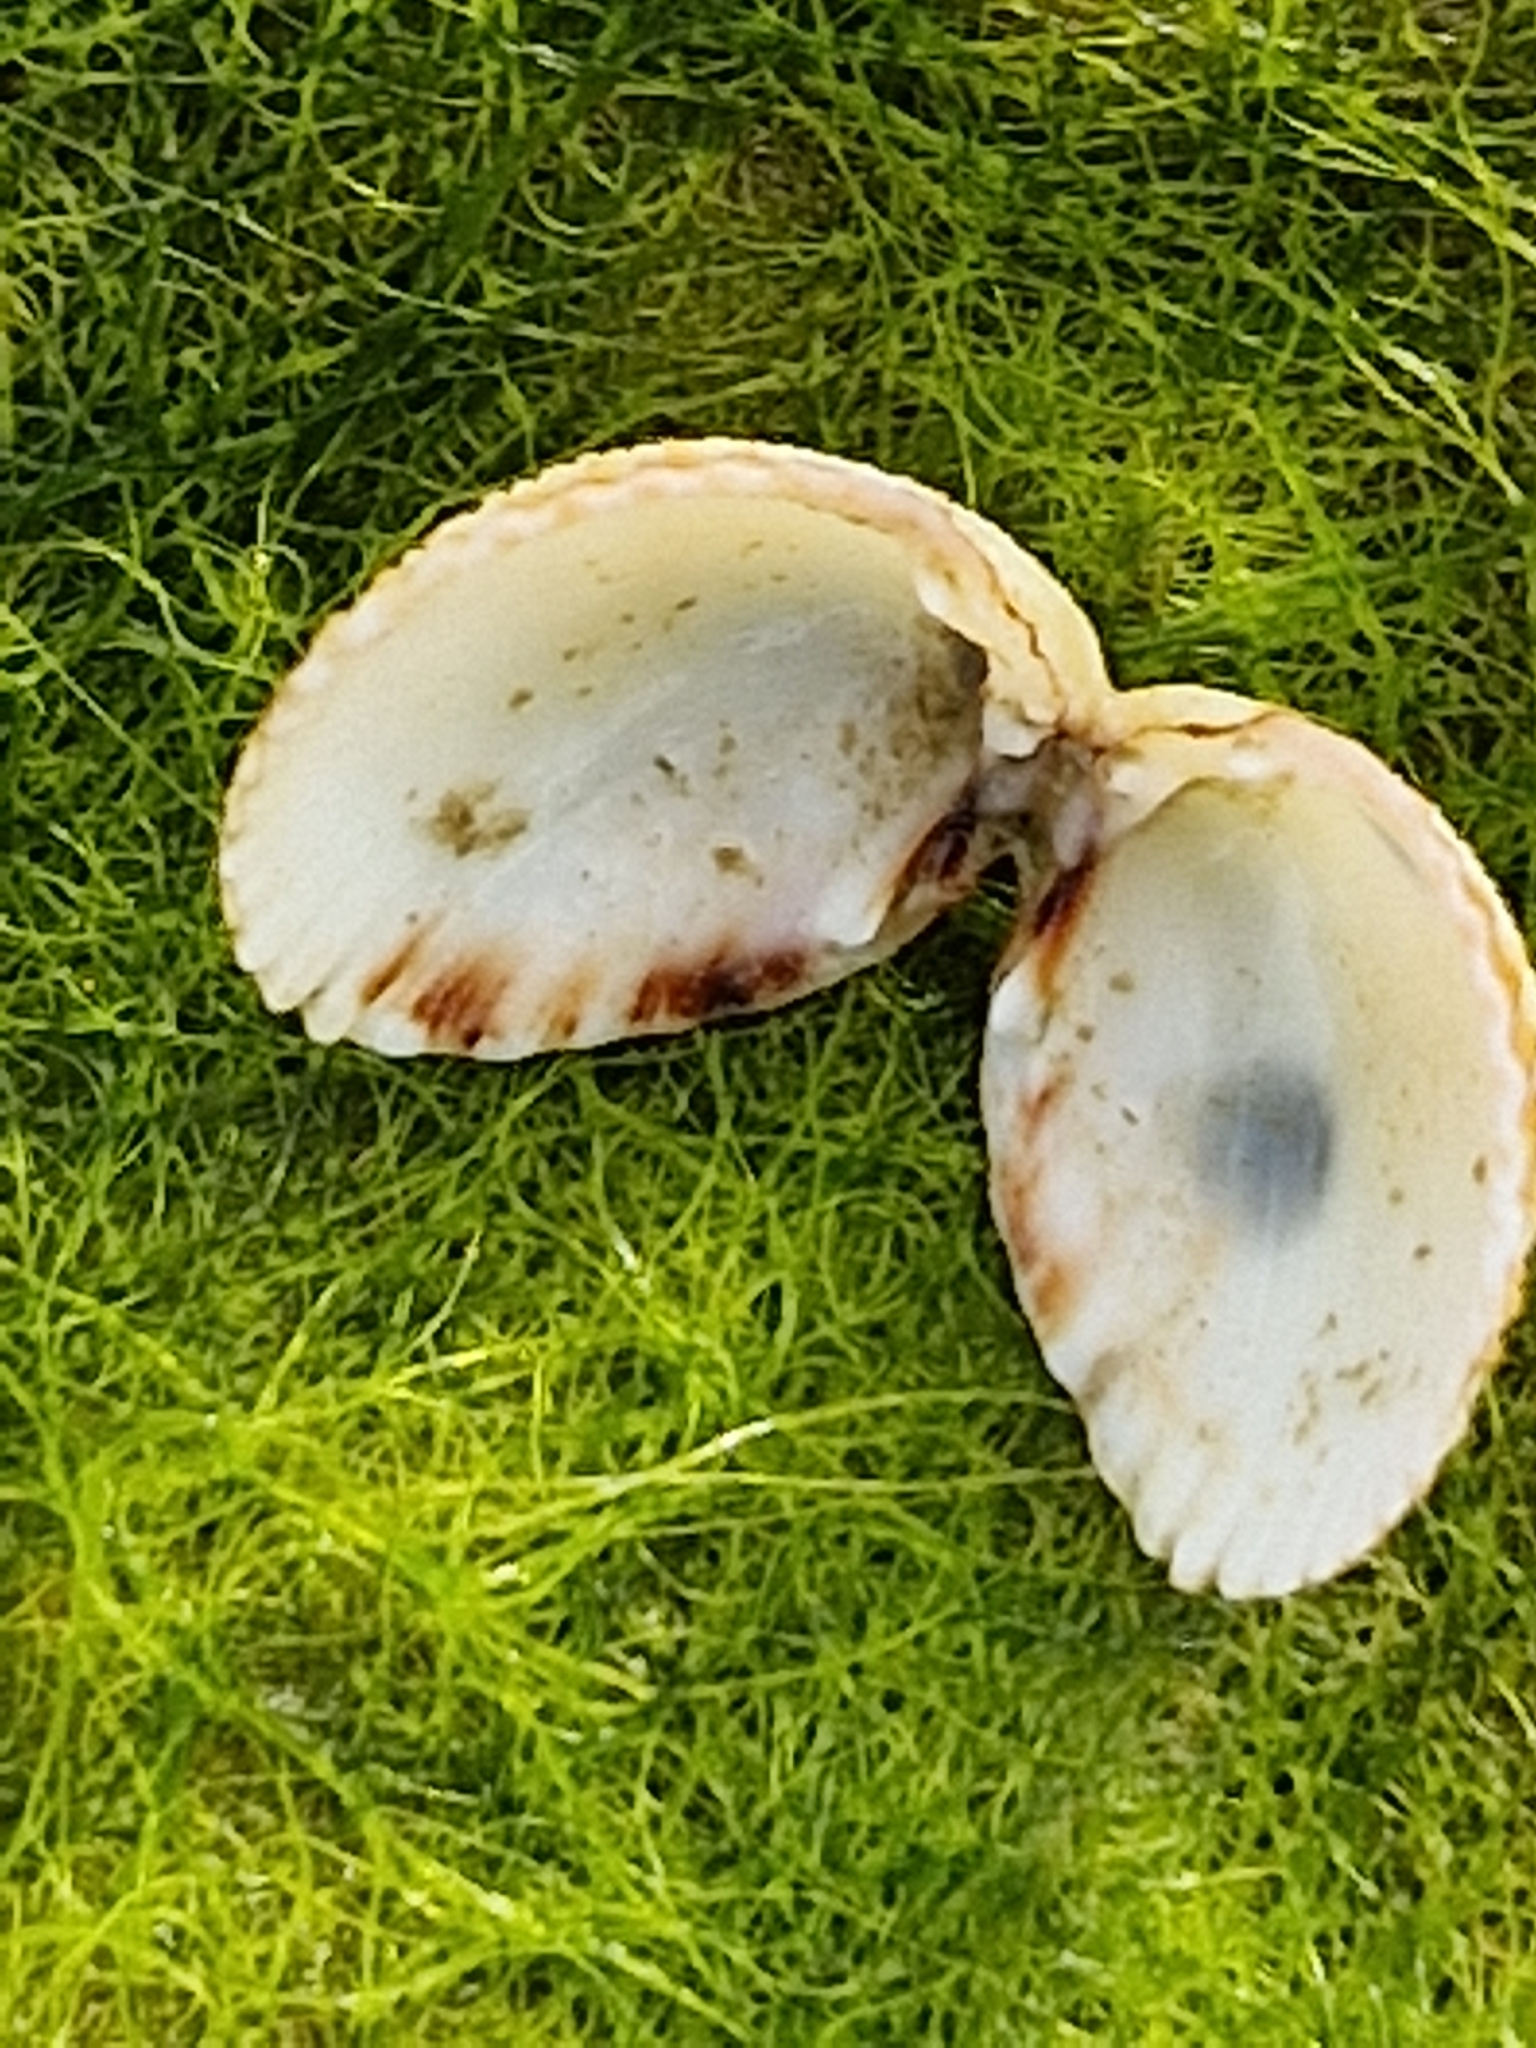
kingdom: Animalia
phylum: Mollusca
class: Bivalvia
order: Cardiida
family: Cardiidae
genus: Cerastoderma
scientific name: Cerastoderma edule
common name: Common cockle
